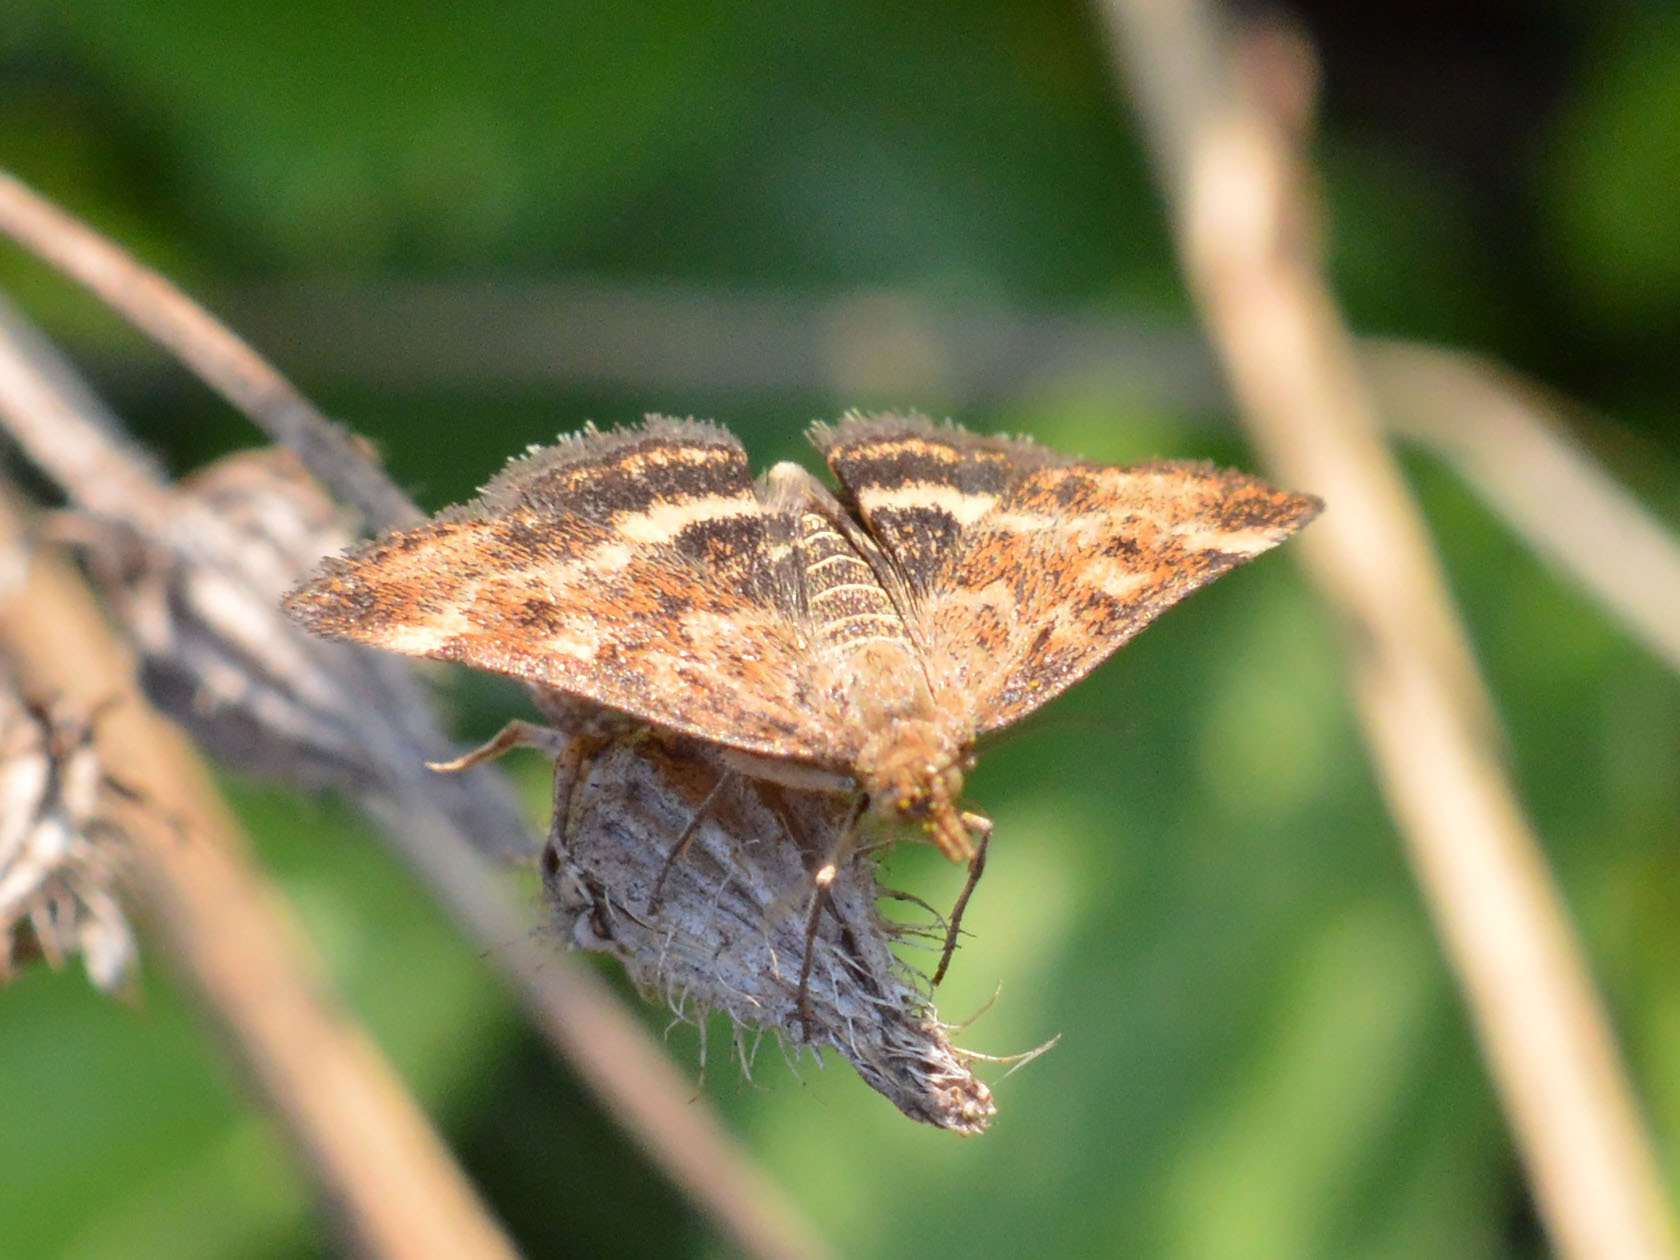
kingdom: Animalia
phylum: Arthropoda
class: Insecta
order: Lepidoptera
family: Crambidae
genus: Pyrausta
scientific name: Pyrausta despicata
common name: Straw-barred pearl
